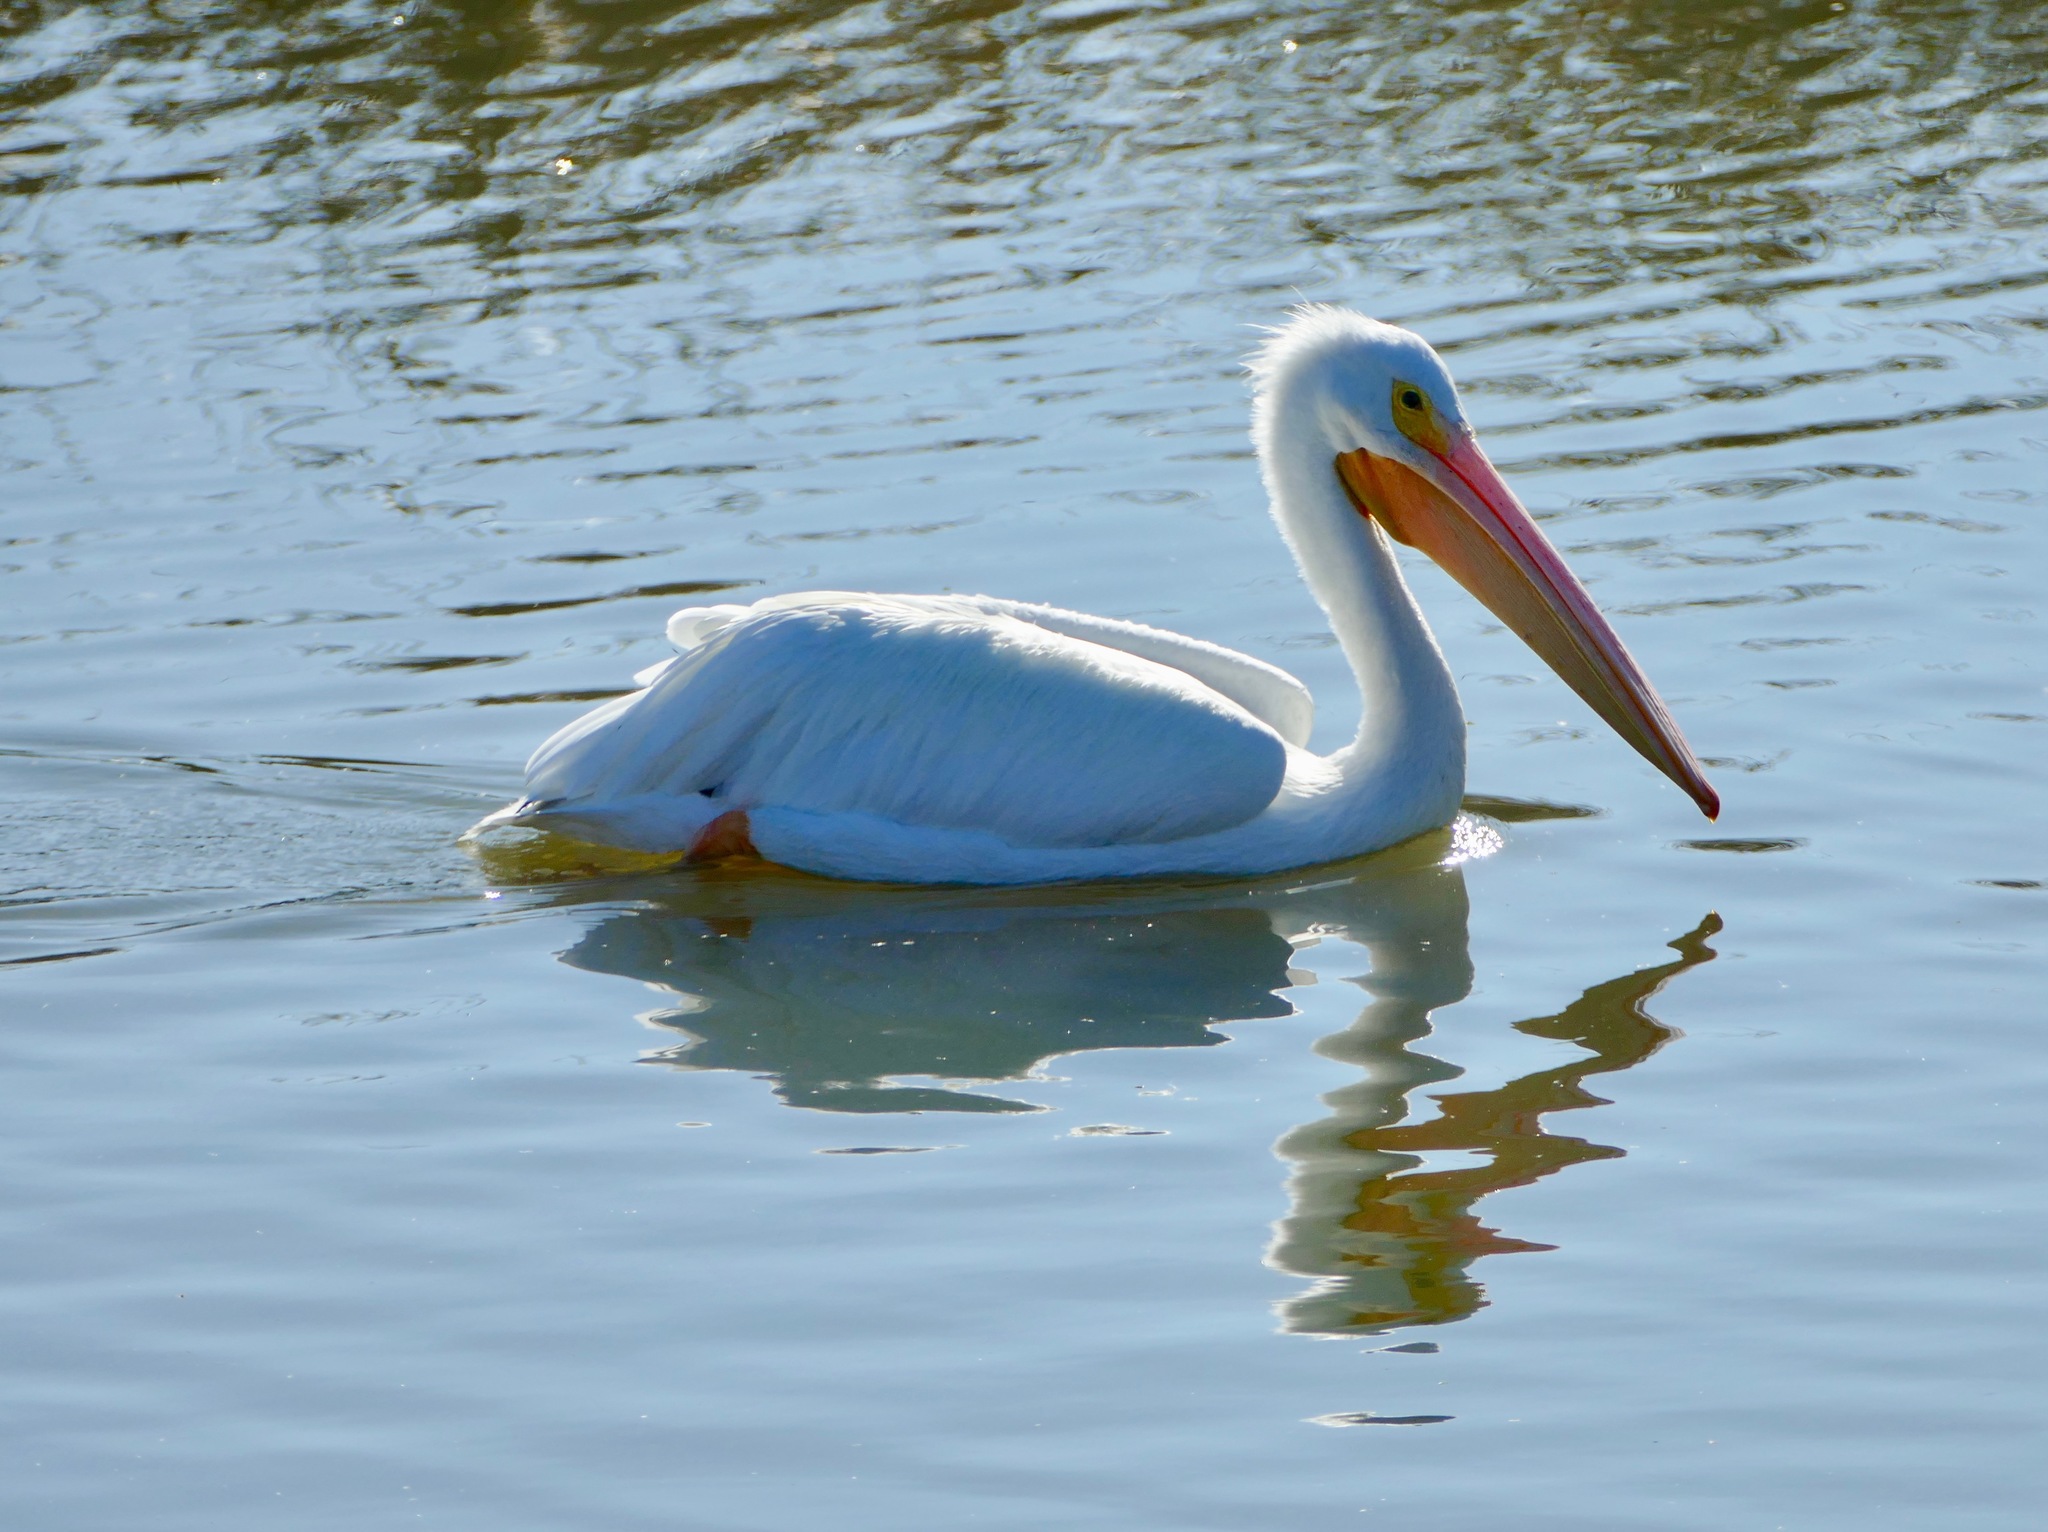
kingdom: Animalia
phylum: Chordata
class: Aves
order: Pelecaniformes
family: Pelecanidae
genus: Pelecanus
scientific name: Pelecanus erythrorhynchos
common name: American white pelican
